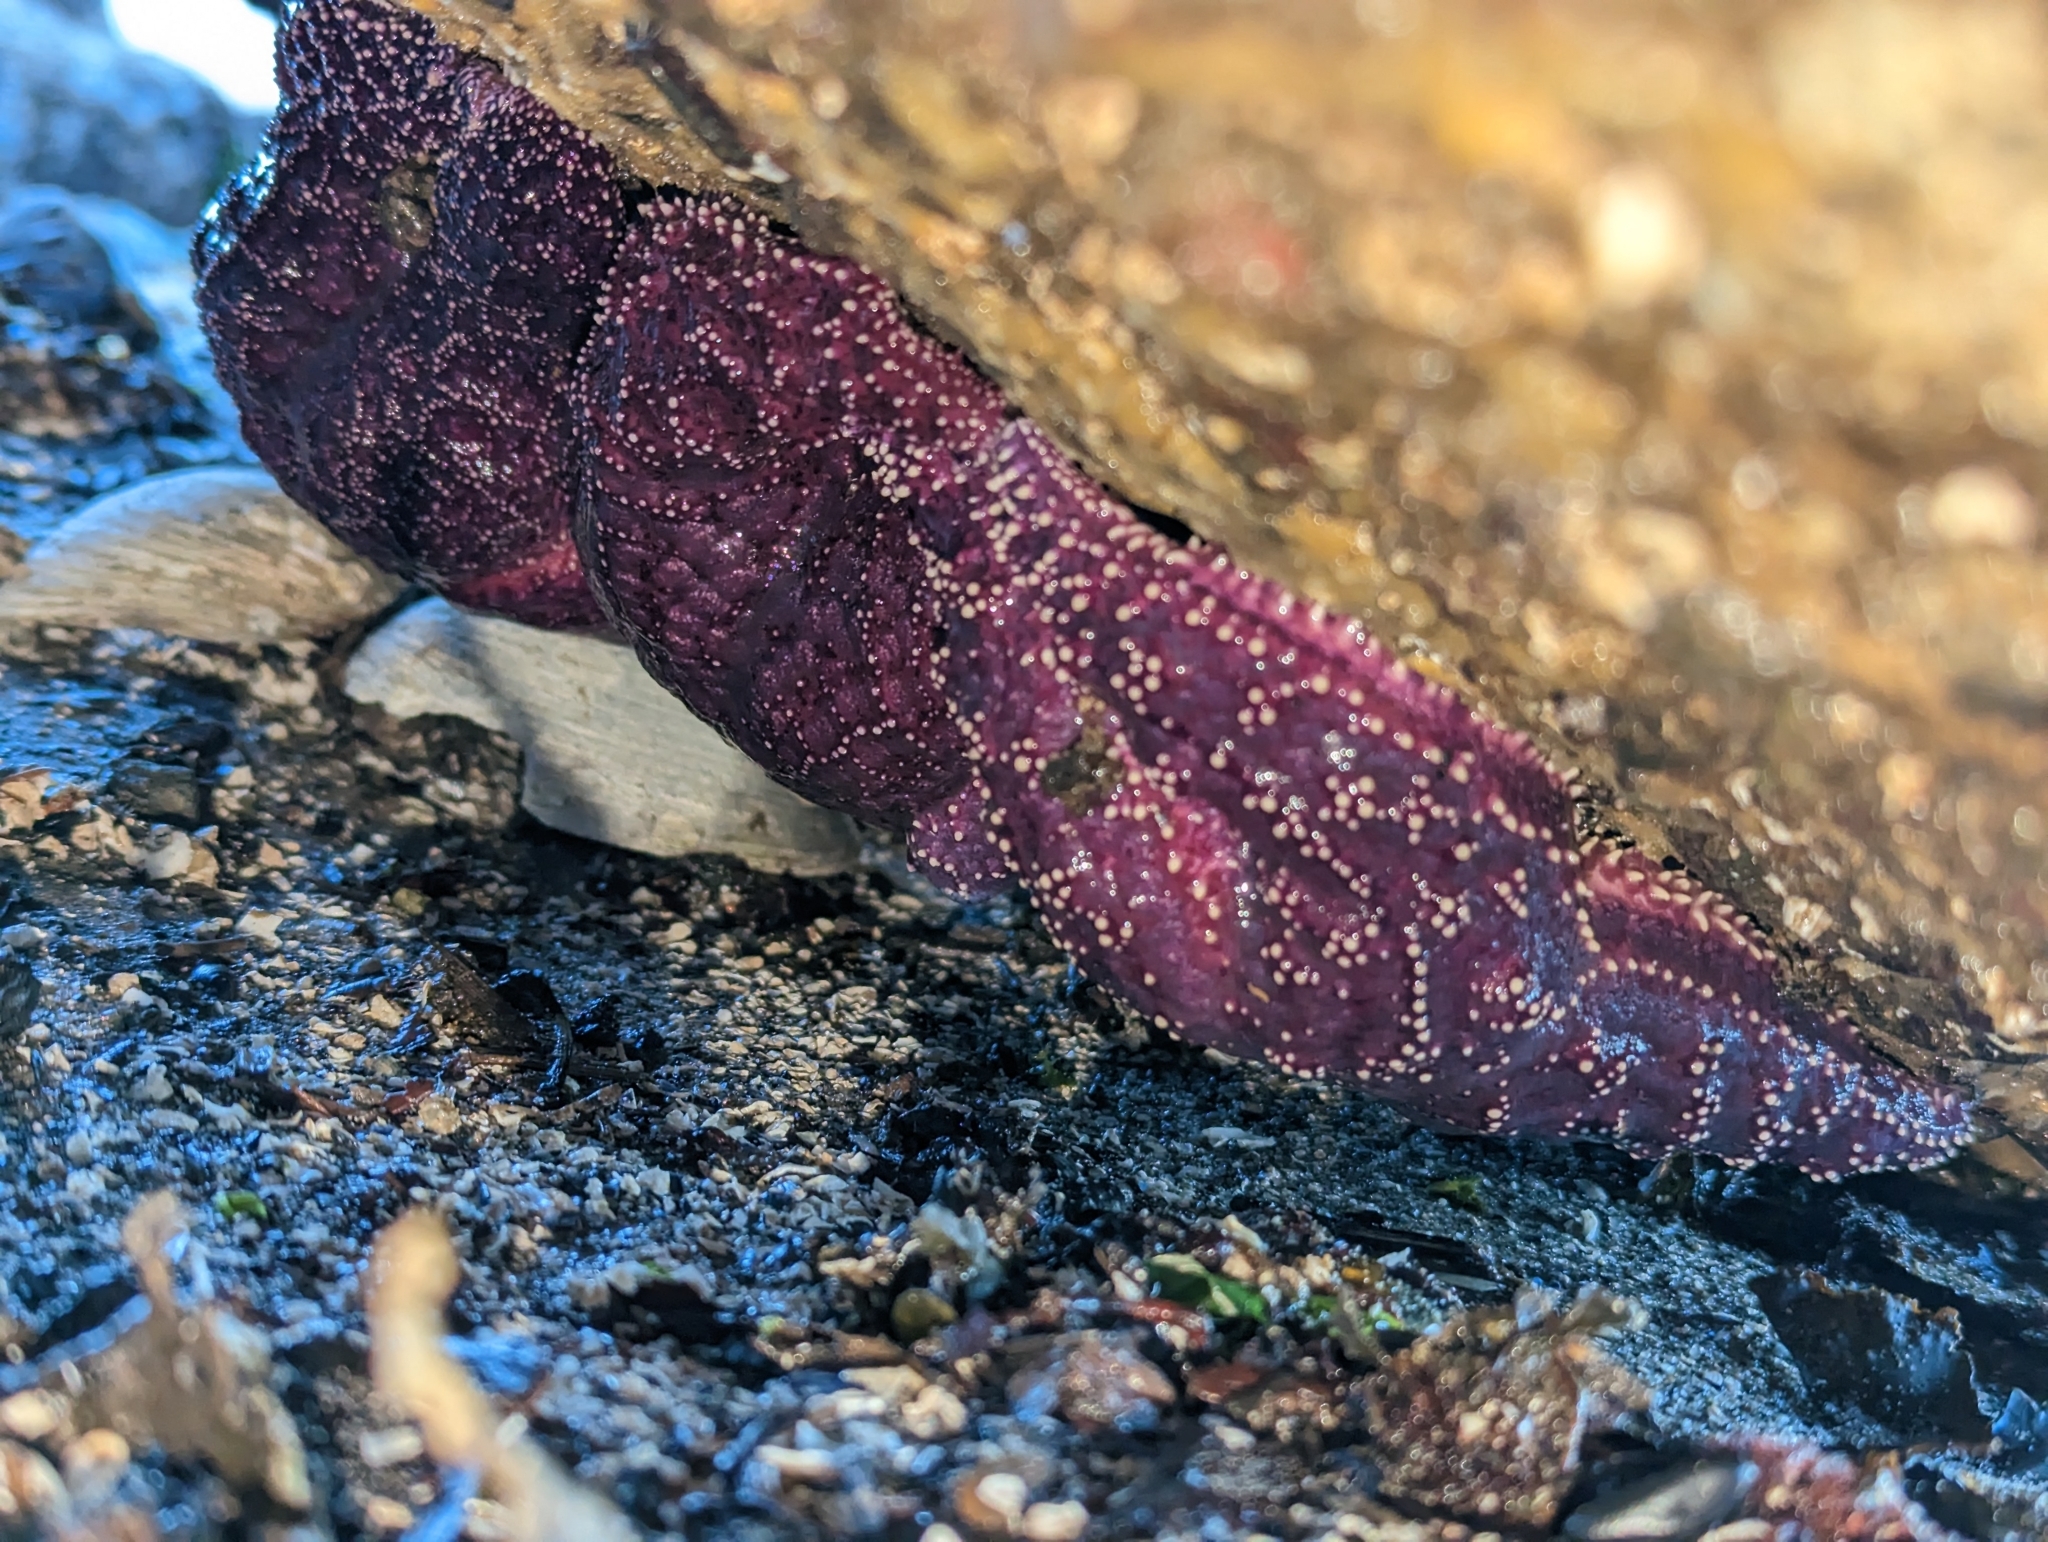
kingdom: Animalia
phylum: Echinodermata
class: Asteroidea
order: Forcipulatida
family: Asteriidae
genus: Pisaster
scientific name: Pisaster ochraceus
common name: Ochre stars
